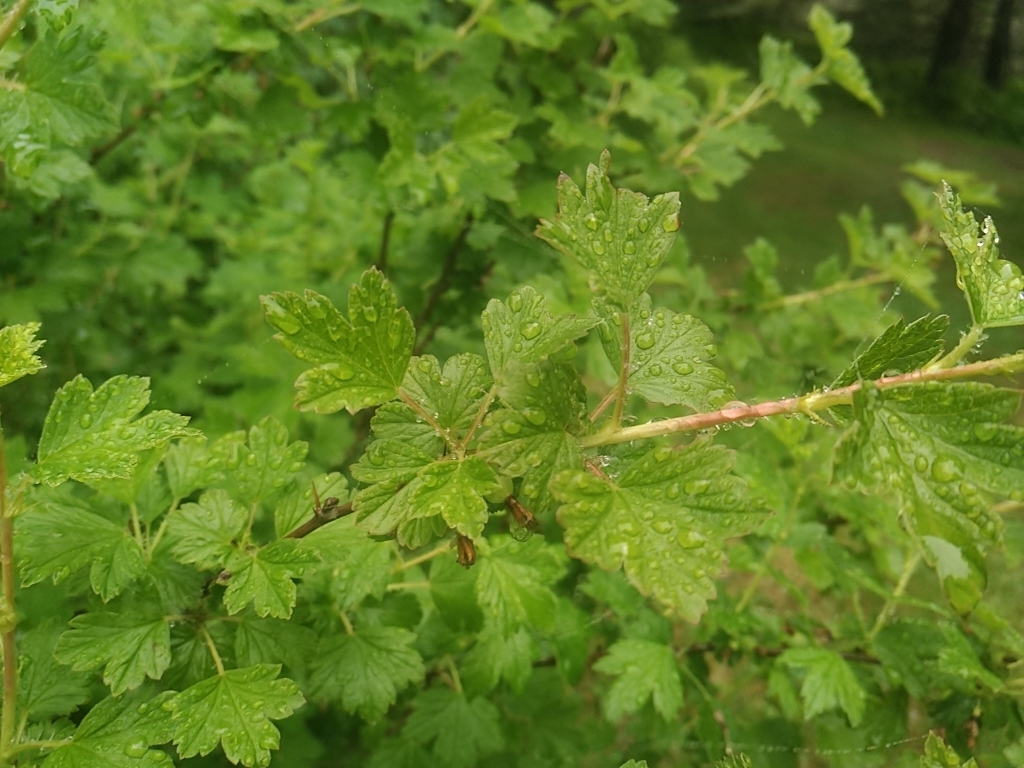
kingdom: Plantae
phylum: Tracheophyta
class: Magnoliopsida
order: Saxifragales
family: Grossulariaceae
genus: Ribes
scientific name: Ribes hirtellum
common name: Hairy gooseberry
